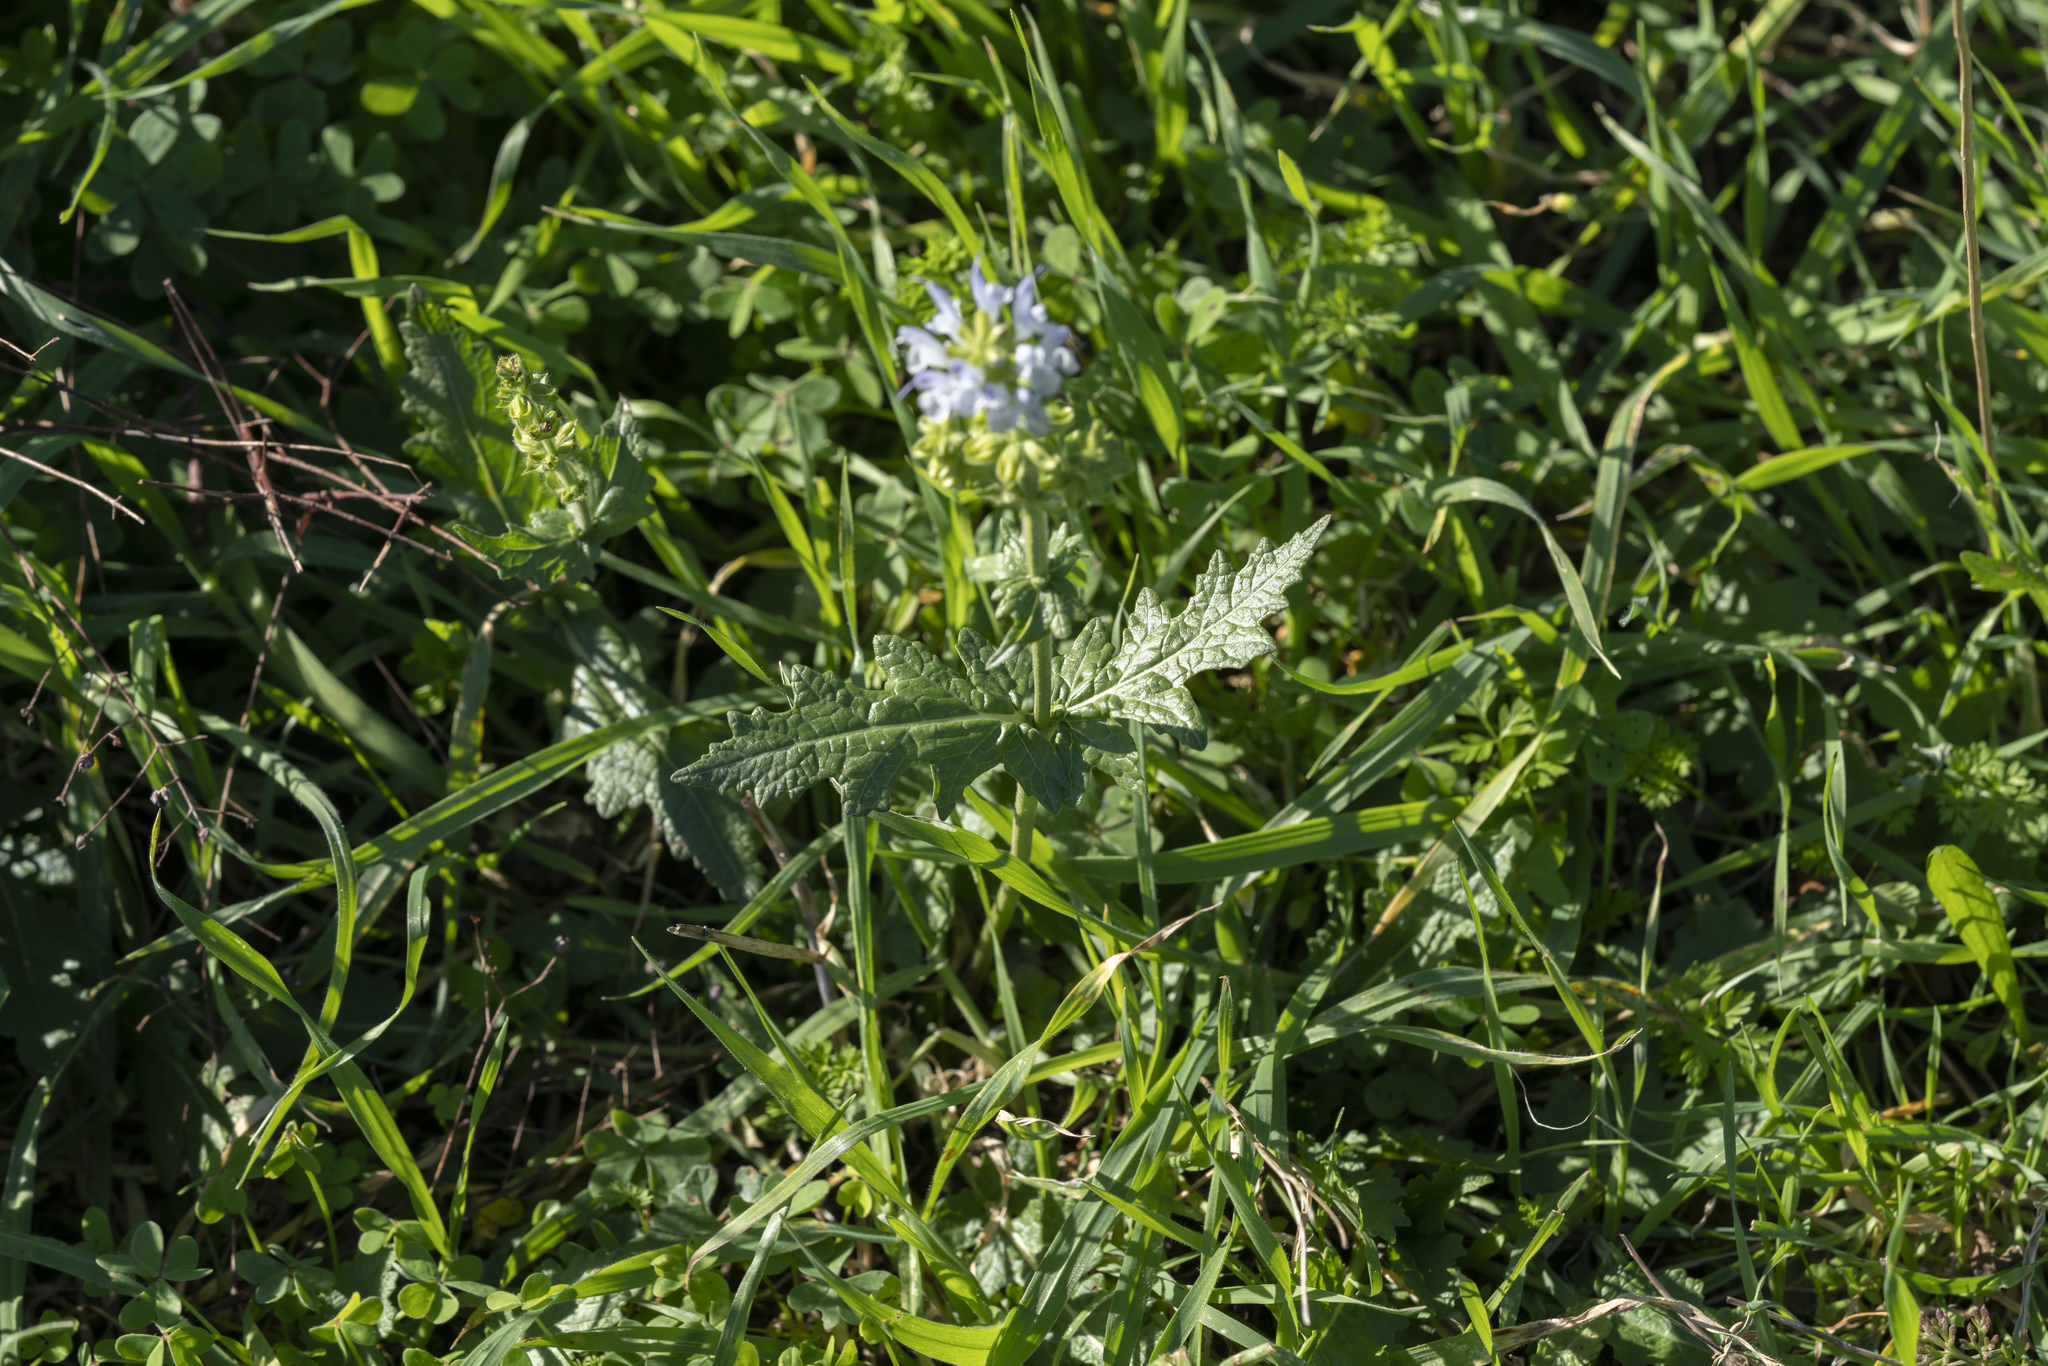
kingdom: Plantae
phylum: Tracheophyta
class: Magnoliopsida
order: Lamiales
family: Lamiaceae
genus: Salvia
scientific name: Salvia clandestina
